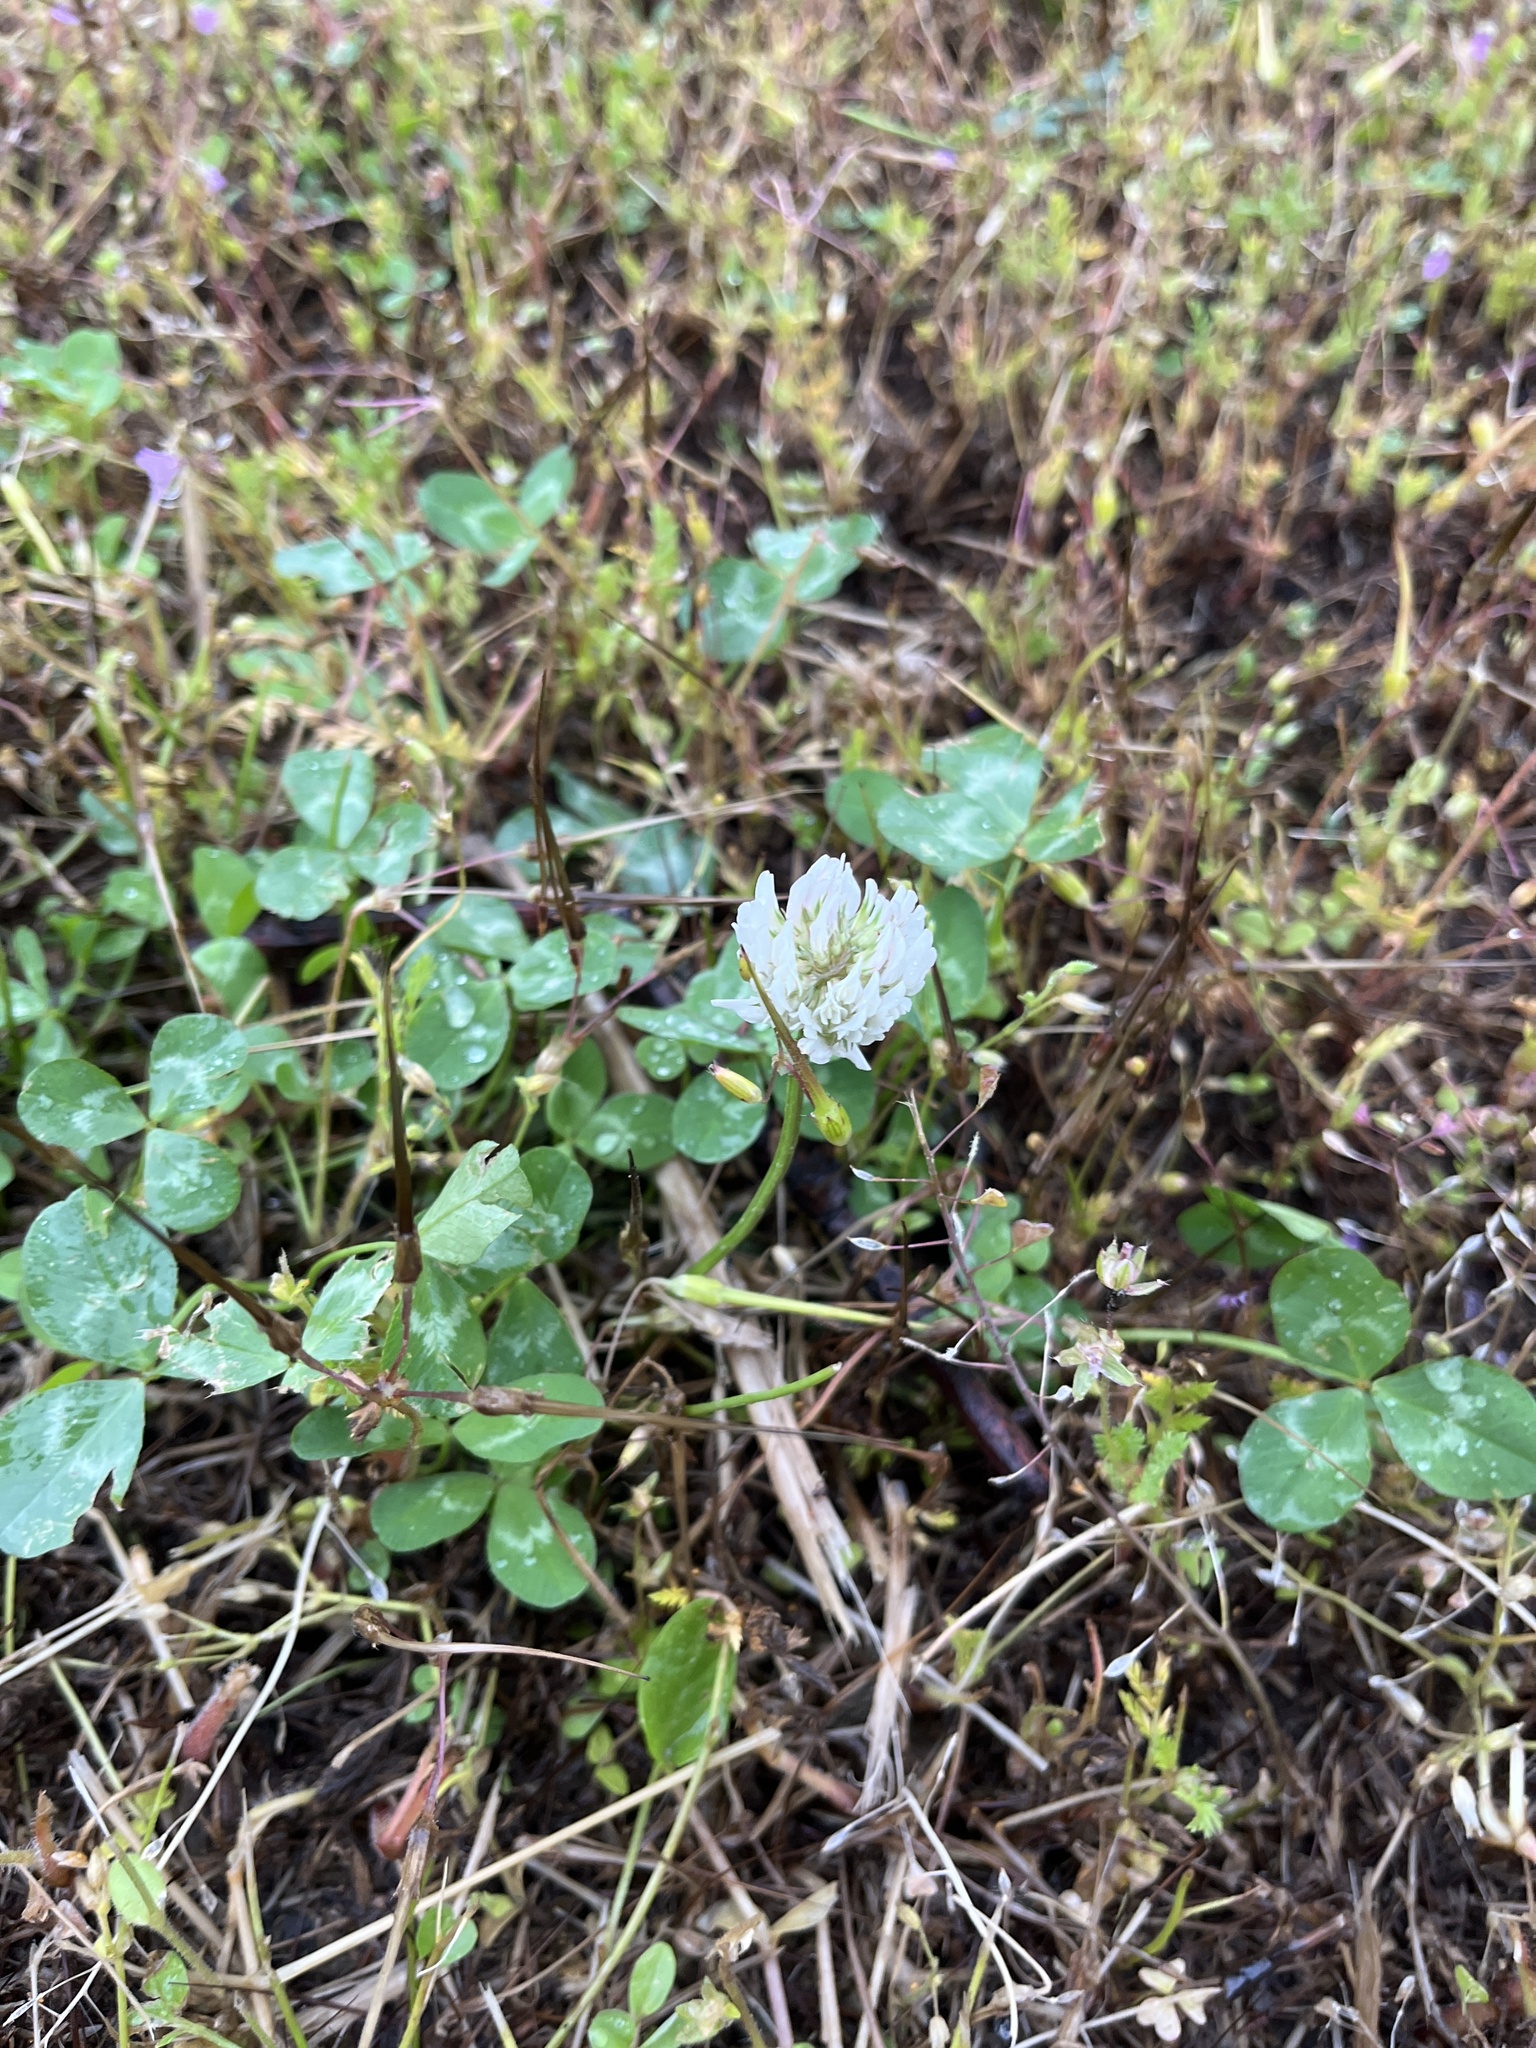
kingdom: Plantae
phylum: Tracheophyta
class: Magnoliopsida
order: Fabales
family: Fabaceae
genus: Trifolium
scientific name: Trifolium repens
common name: White clover
